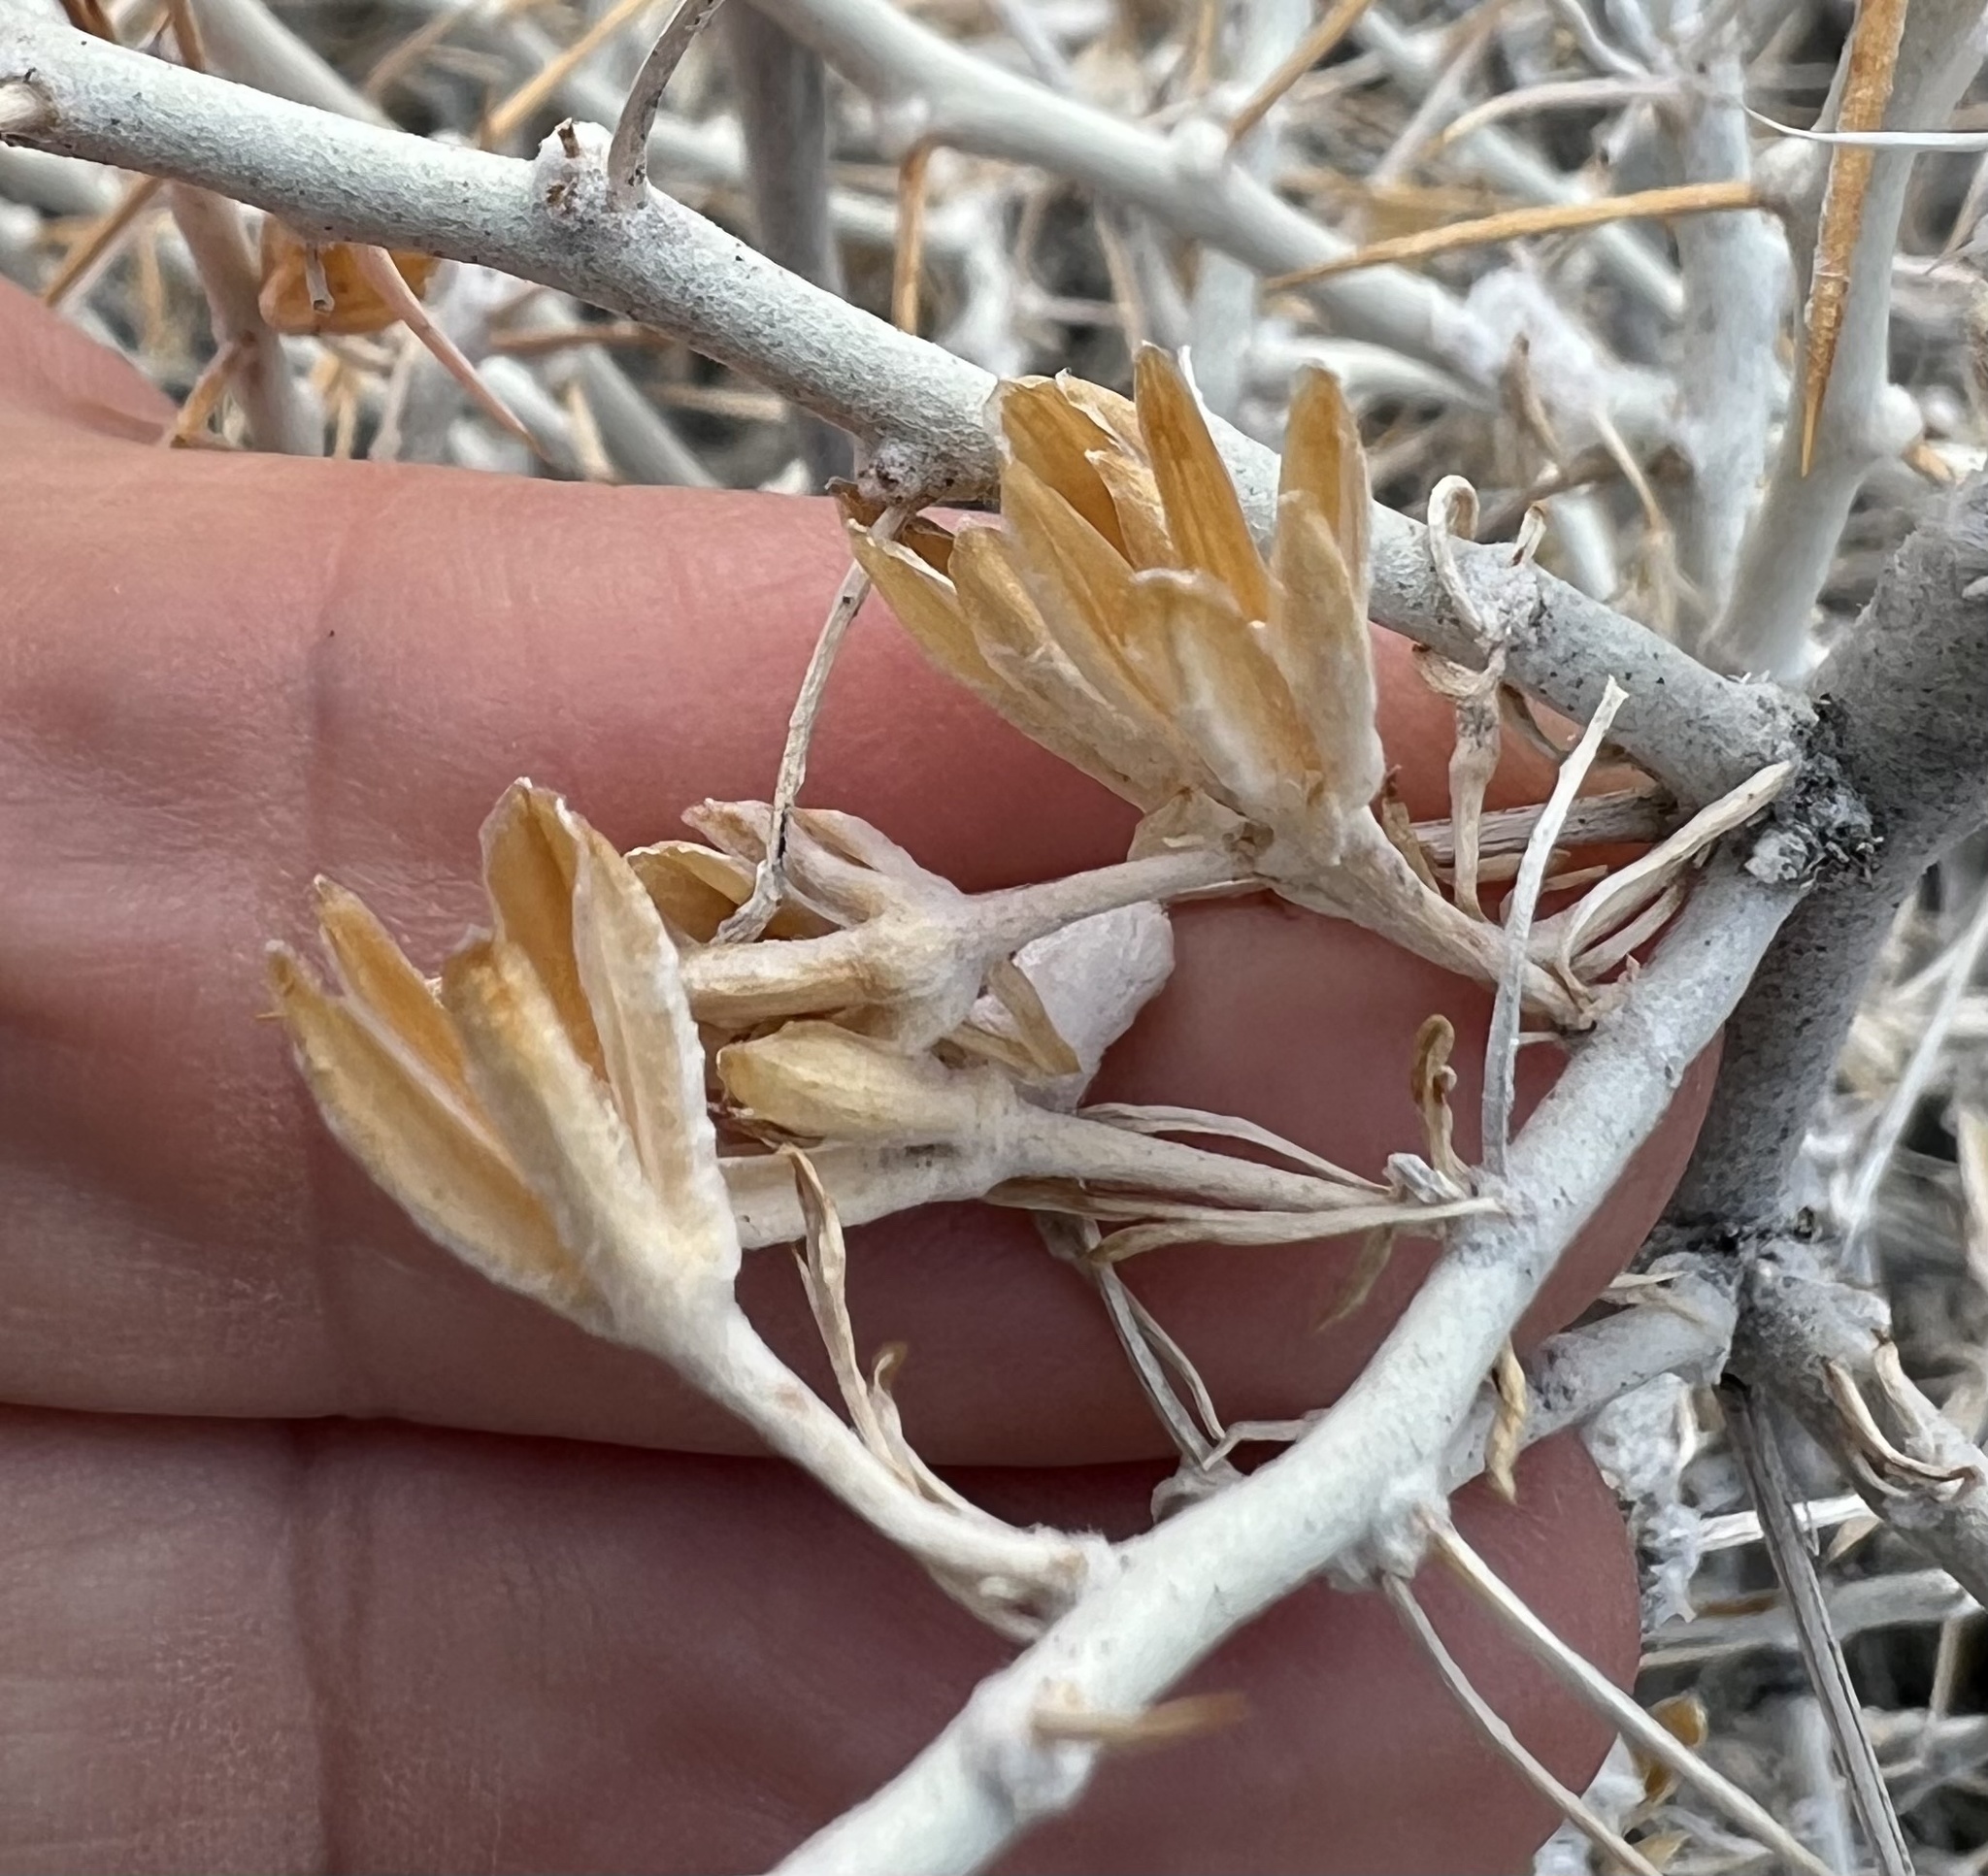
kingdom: Plantae
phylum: Tracheophyta
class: Magnoliopsida
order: Asterales
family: Asteraceae
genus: Tetradymia
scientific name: Tetradymia axillaris
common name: Long-spine horsebrush
